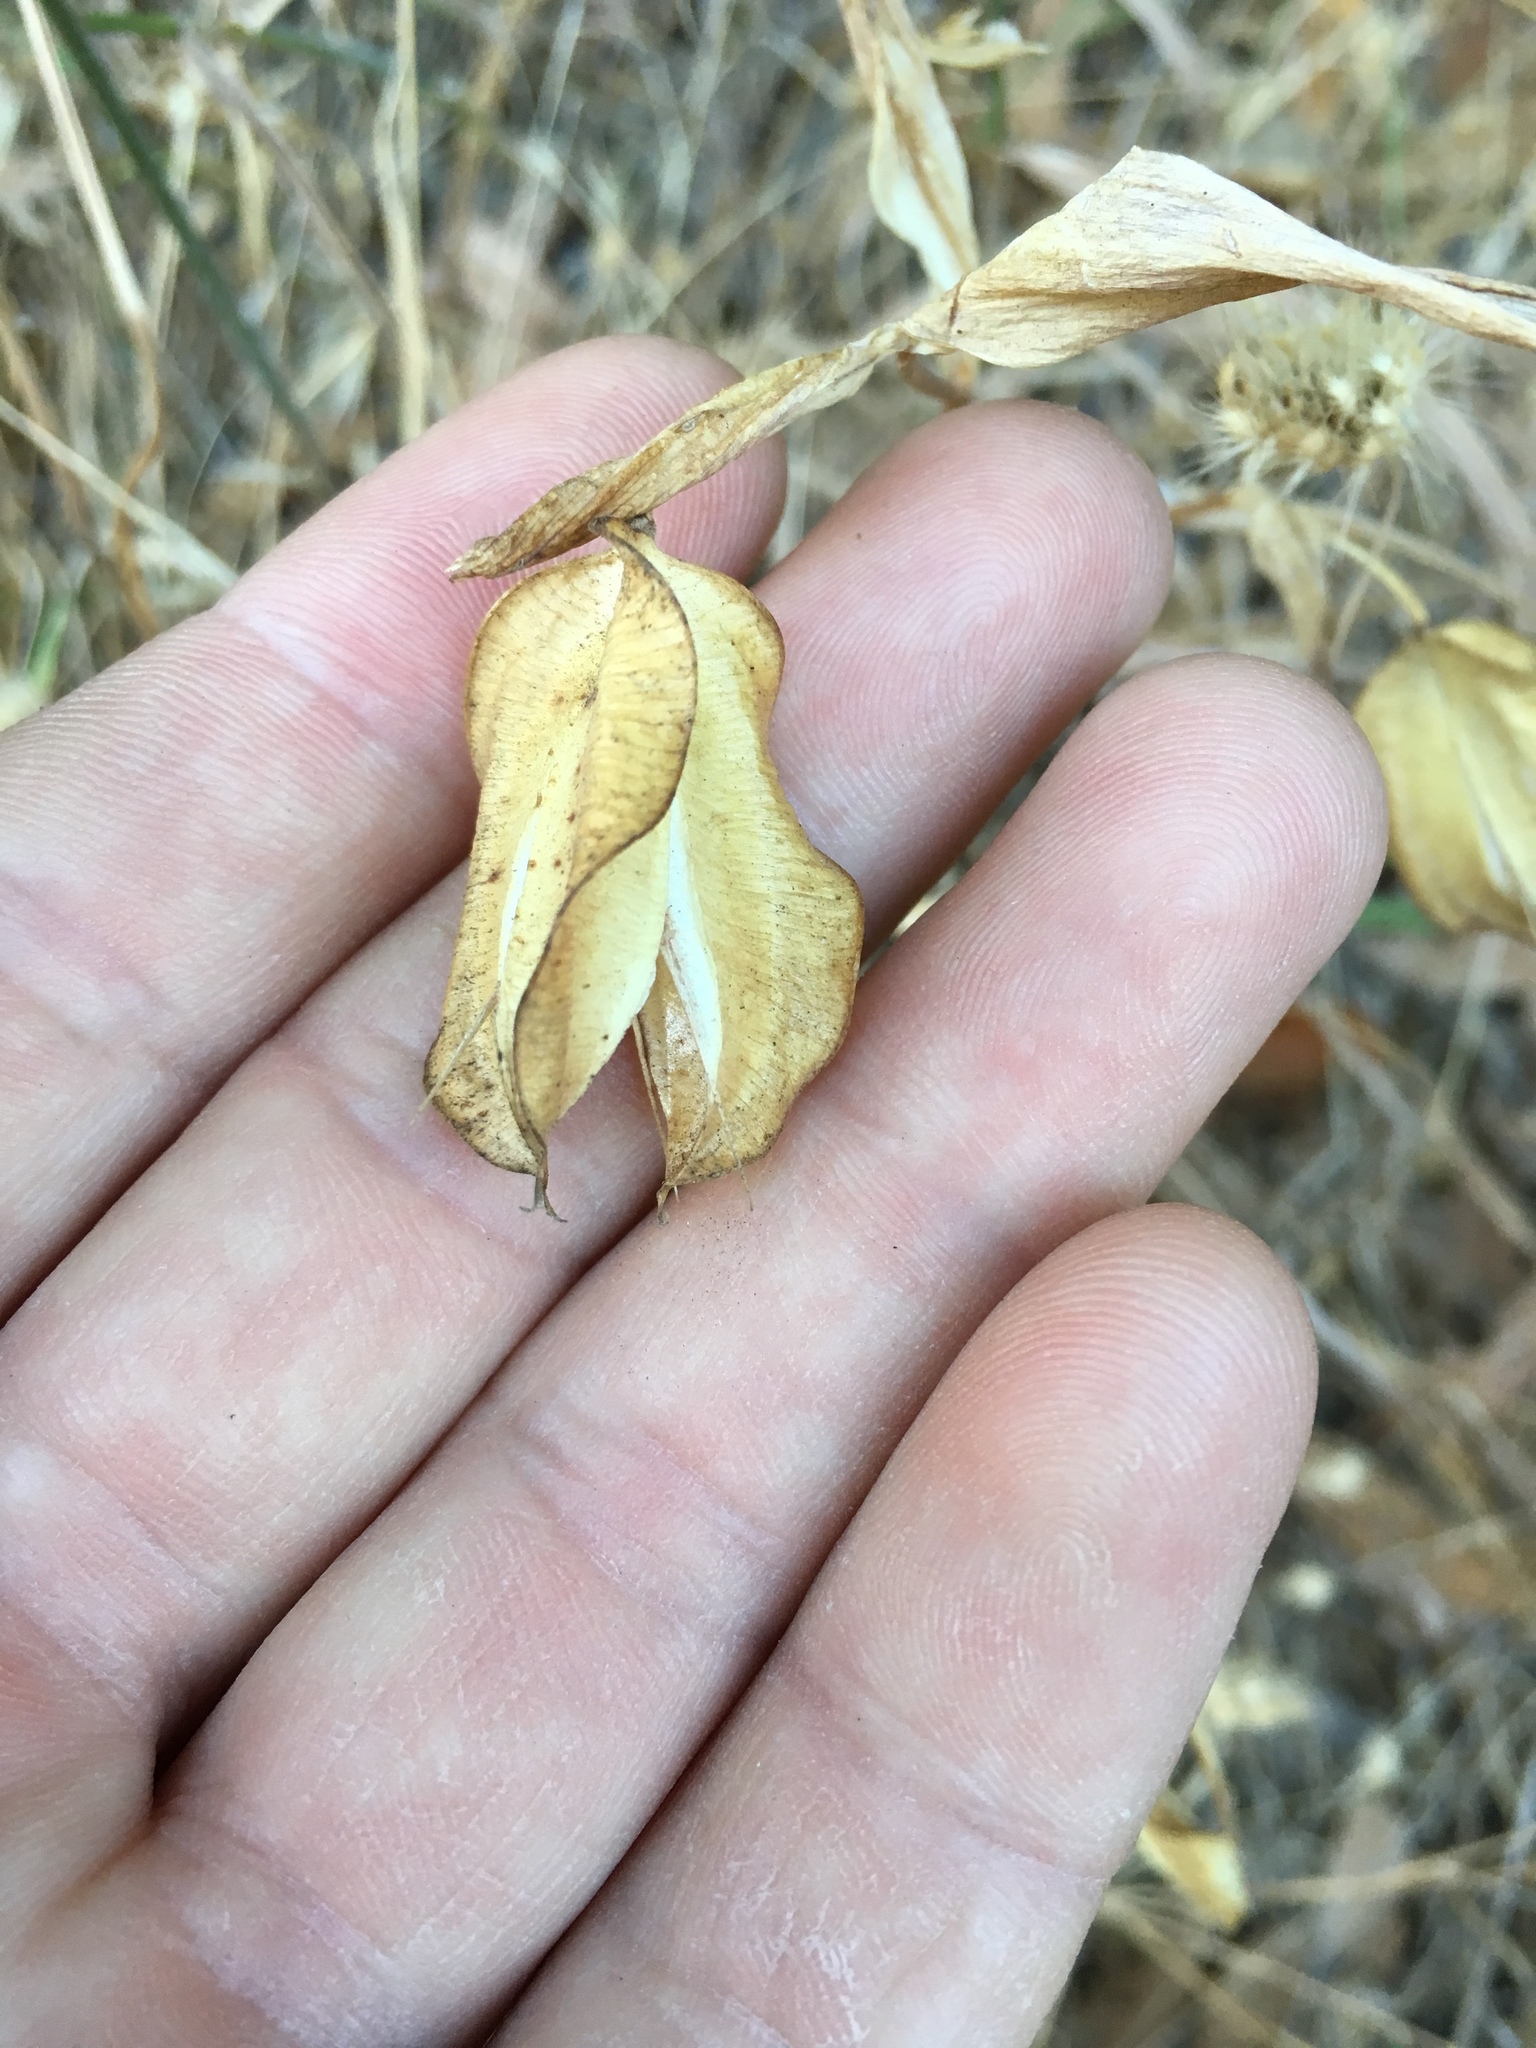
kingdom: Plantae
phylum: Tracheophyta
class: Liliopsida
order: Liliales
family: Liliaceae
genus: Calochortus
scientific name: Calochortus albus
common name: Fairy-lantern
